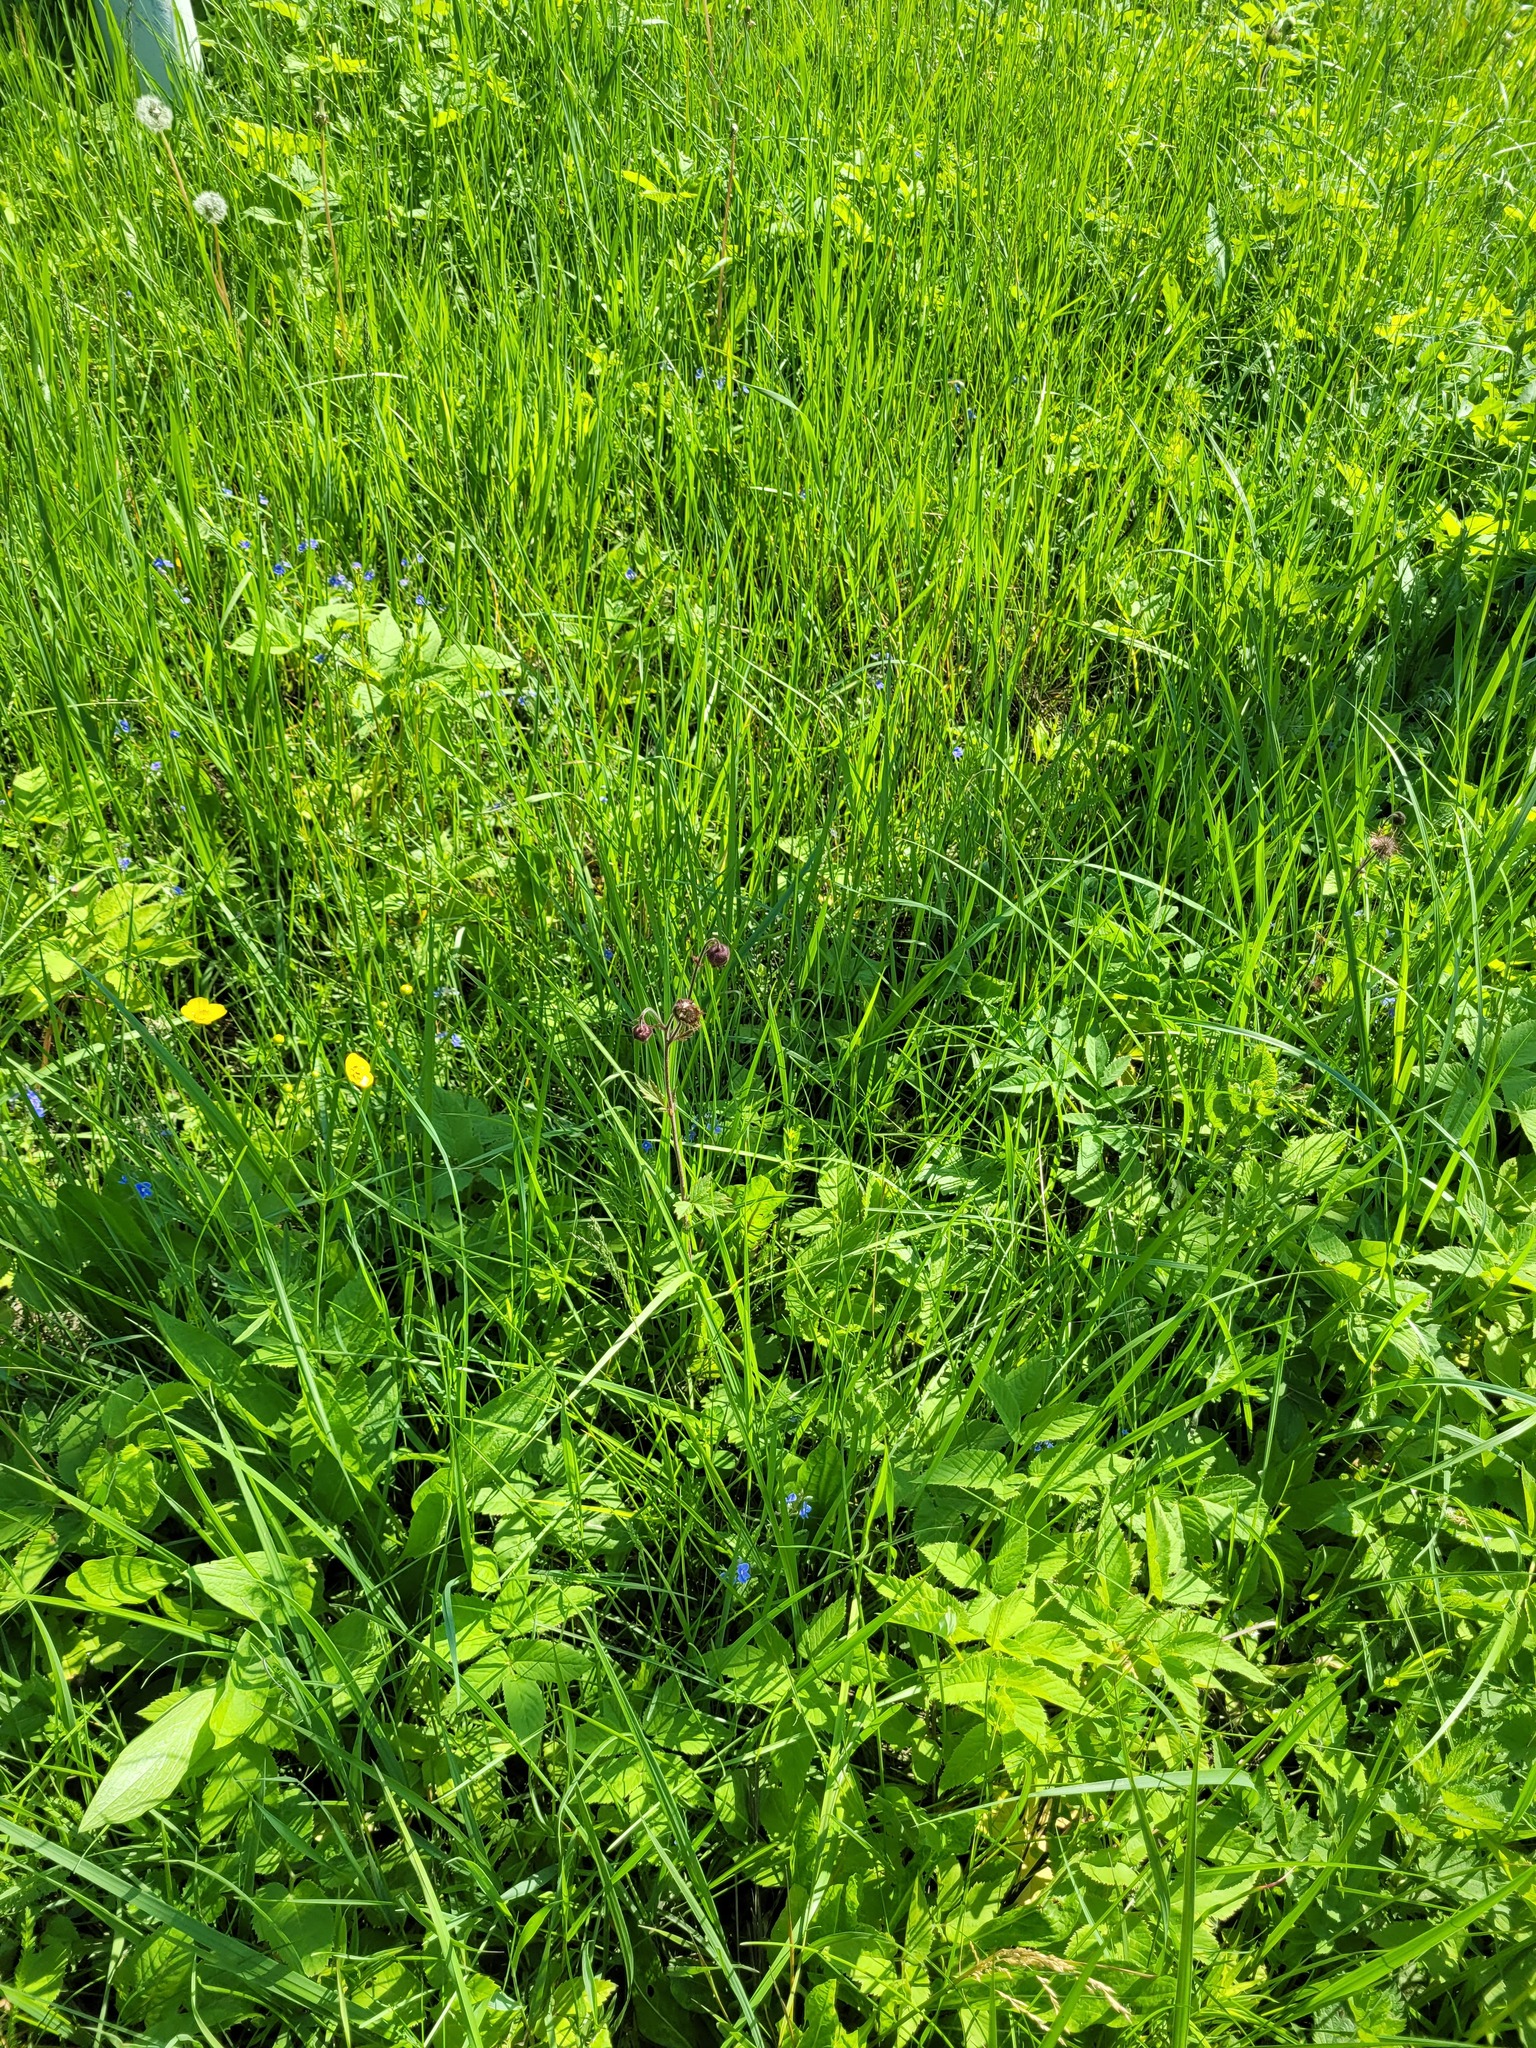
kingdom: Plantae
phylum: Tracheophyta
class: Magnoliopsida
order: Rosales
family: Rosaceae
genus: Geum
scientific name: Geum rivale
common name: Water avens
